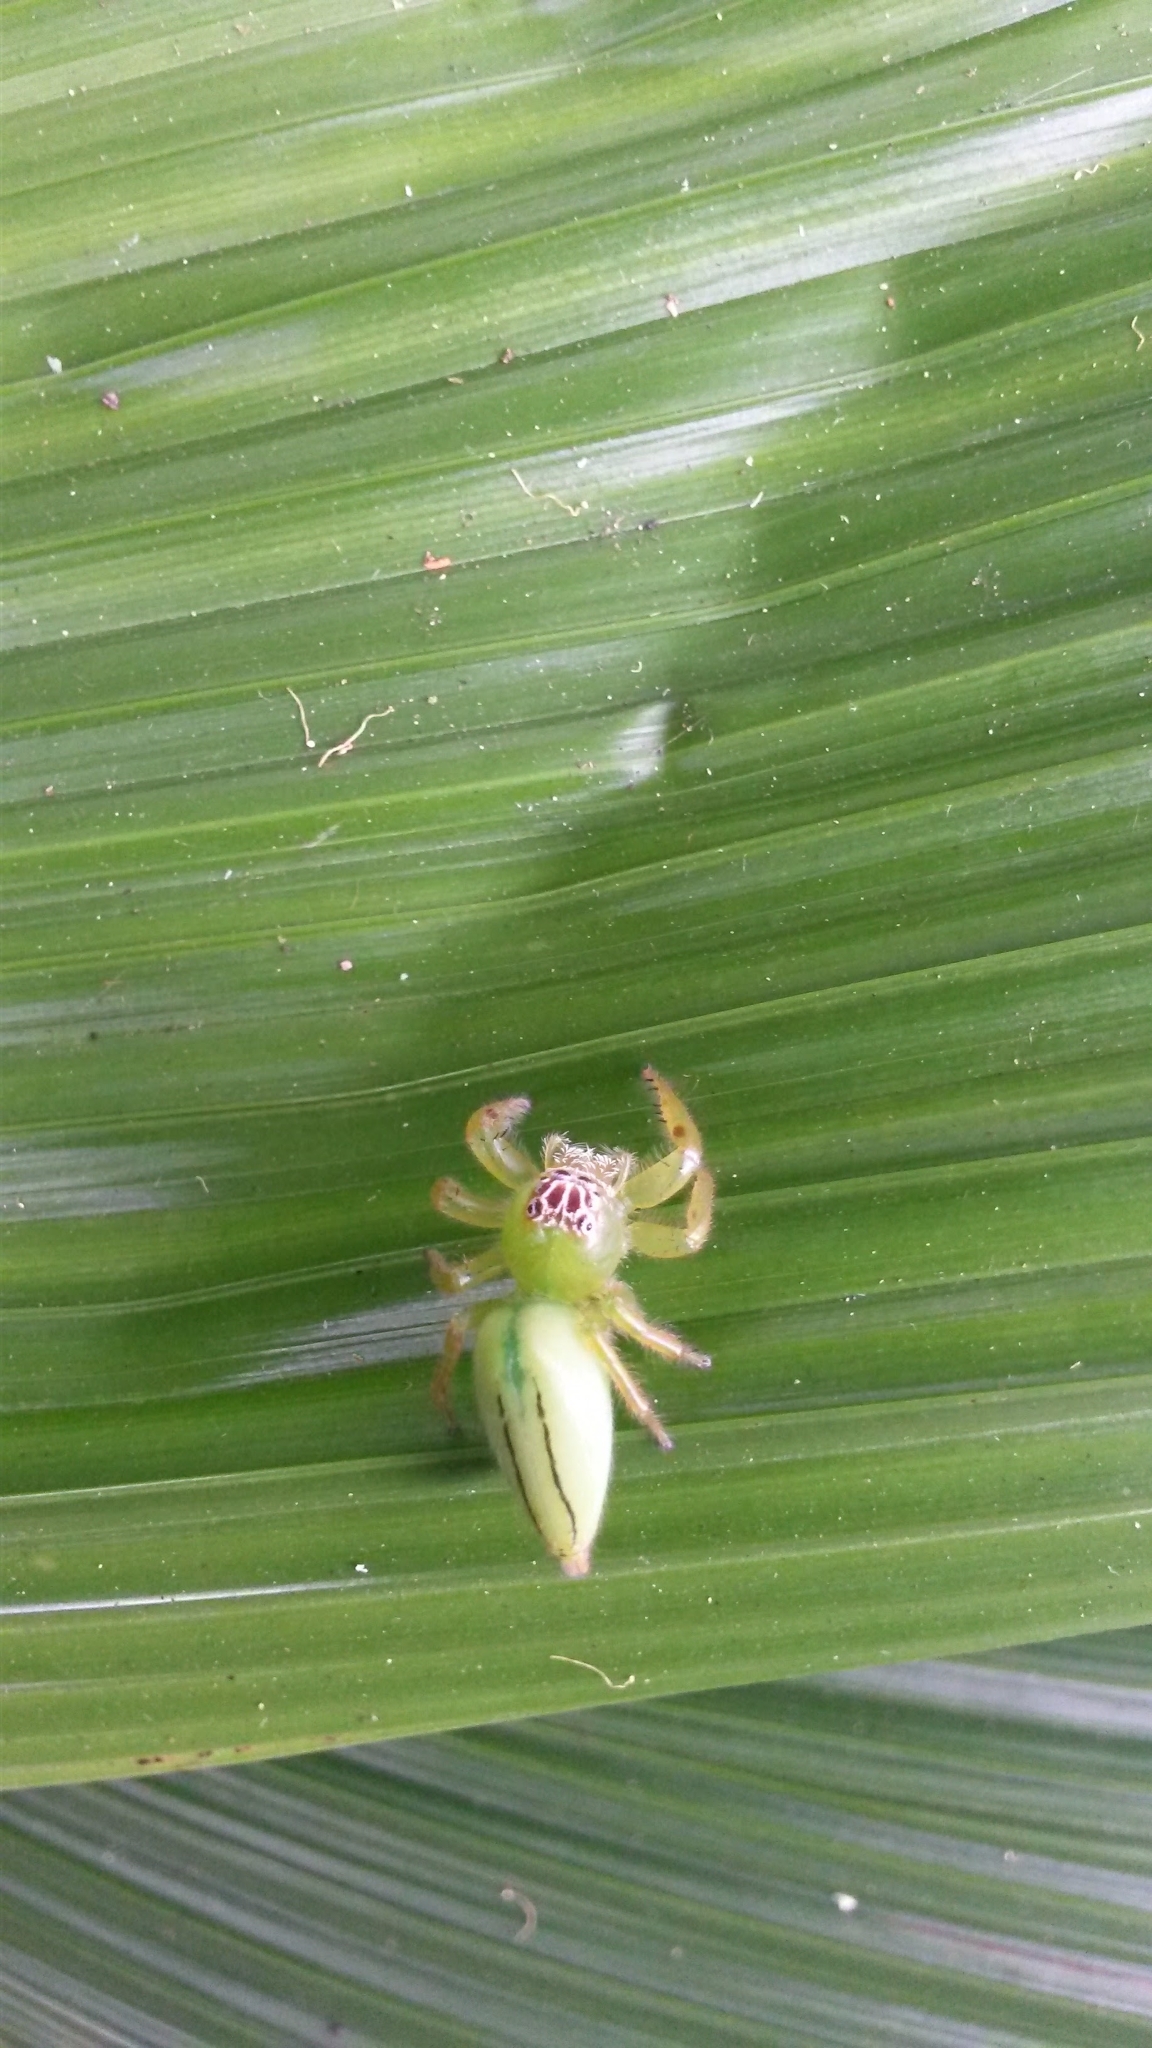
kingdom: Animalia
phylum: Arthropoda
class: Arachnida
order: Araneae
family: Salticidae
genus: Mopsus
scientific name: Mopsus mormon
